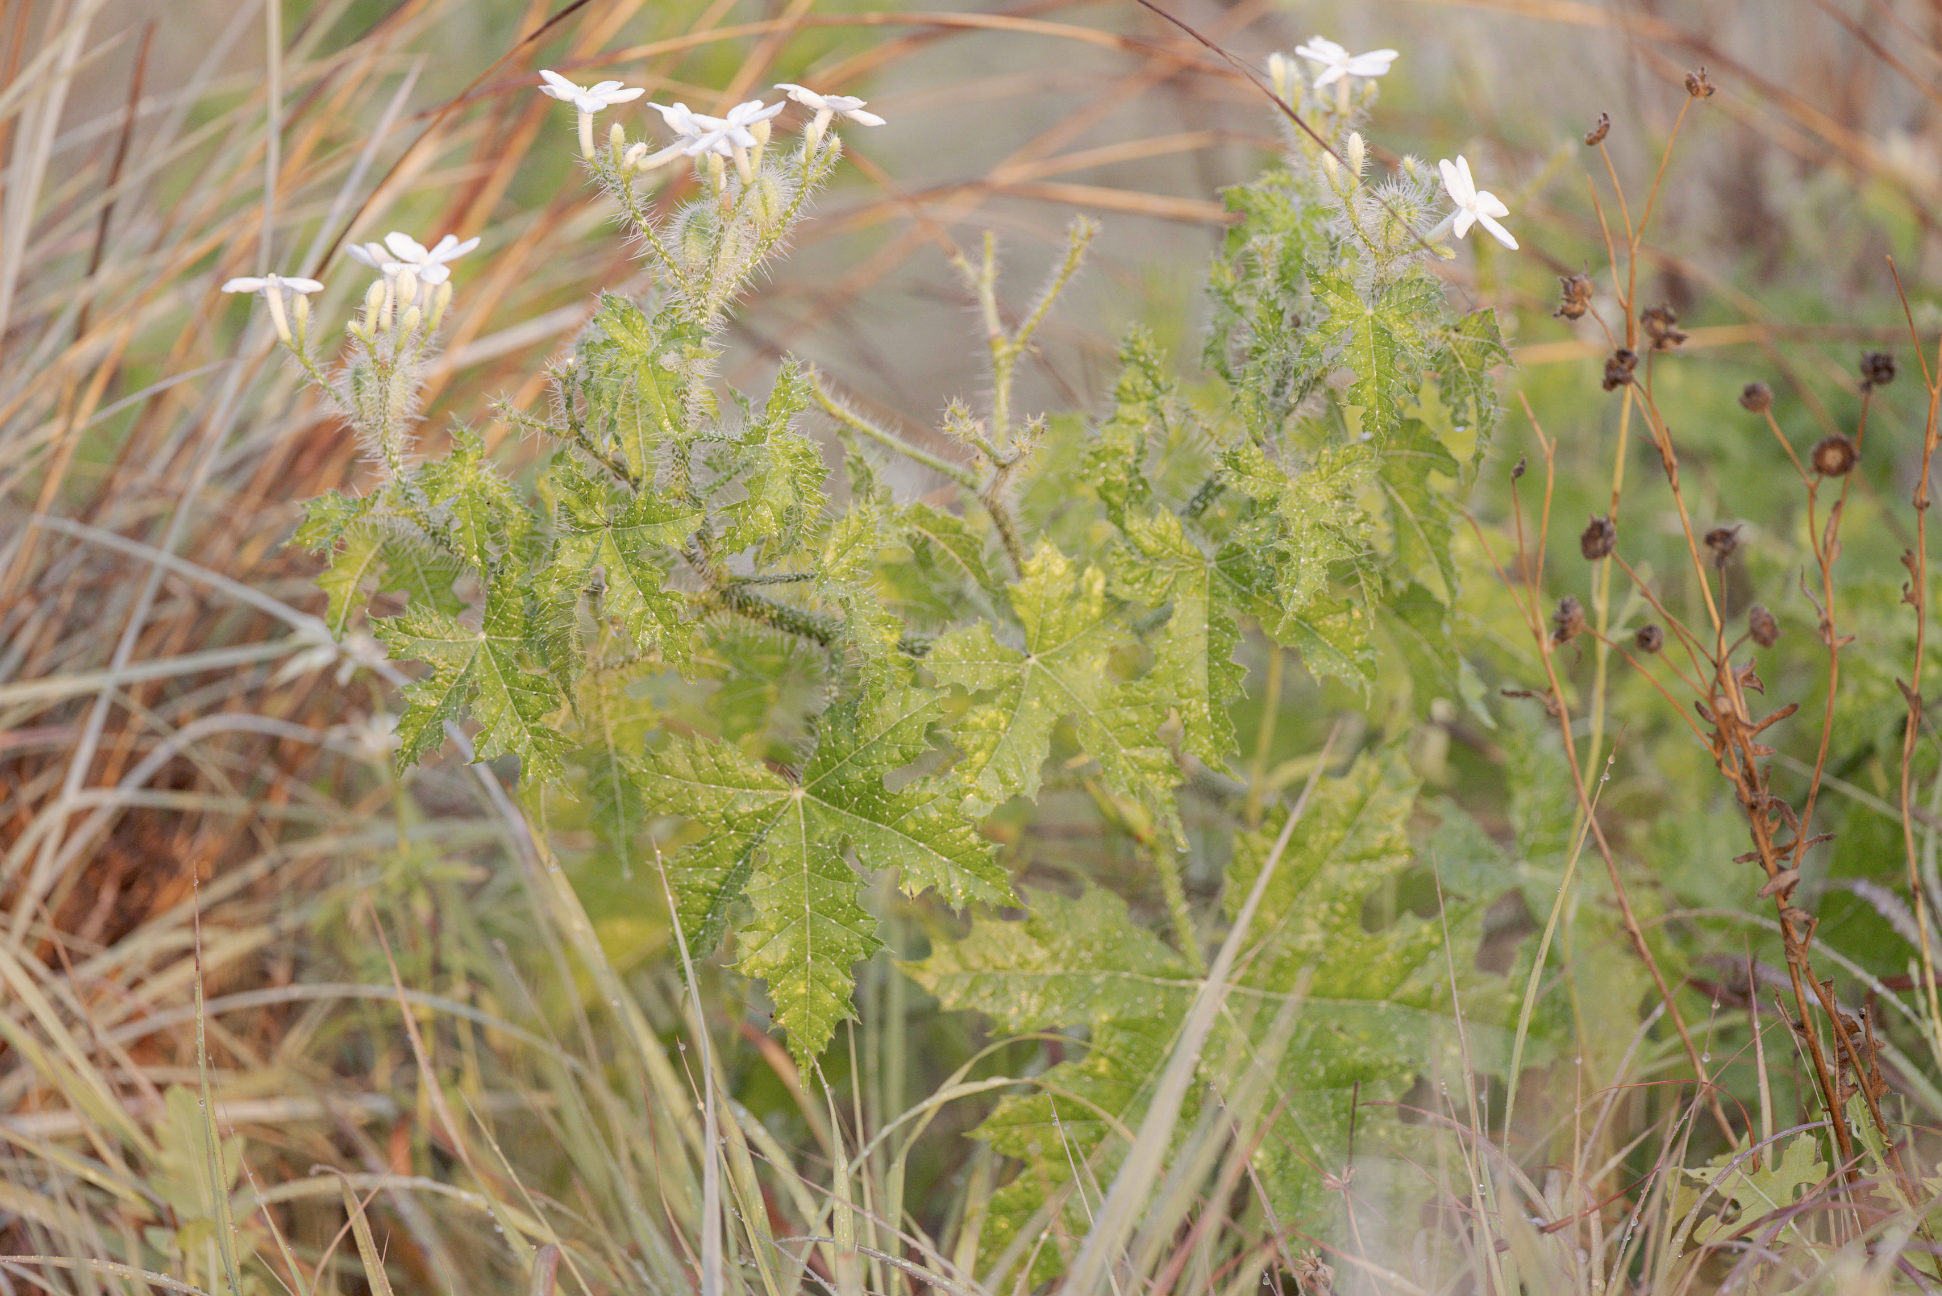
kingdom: Plantae
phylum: Tracheophyta
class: Magnoliopsida
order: Malpighiales
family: Euphorbiaceae
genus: Cnidoscolus
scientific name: Cnidoscolus texanus
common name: Texas bull-nettle
